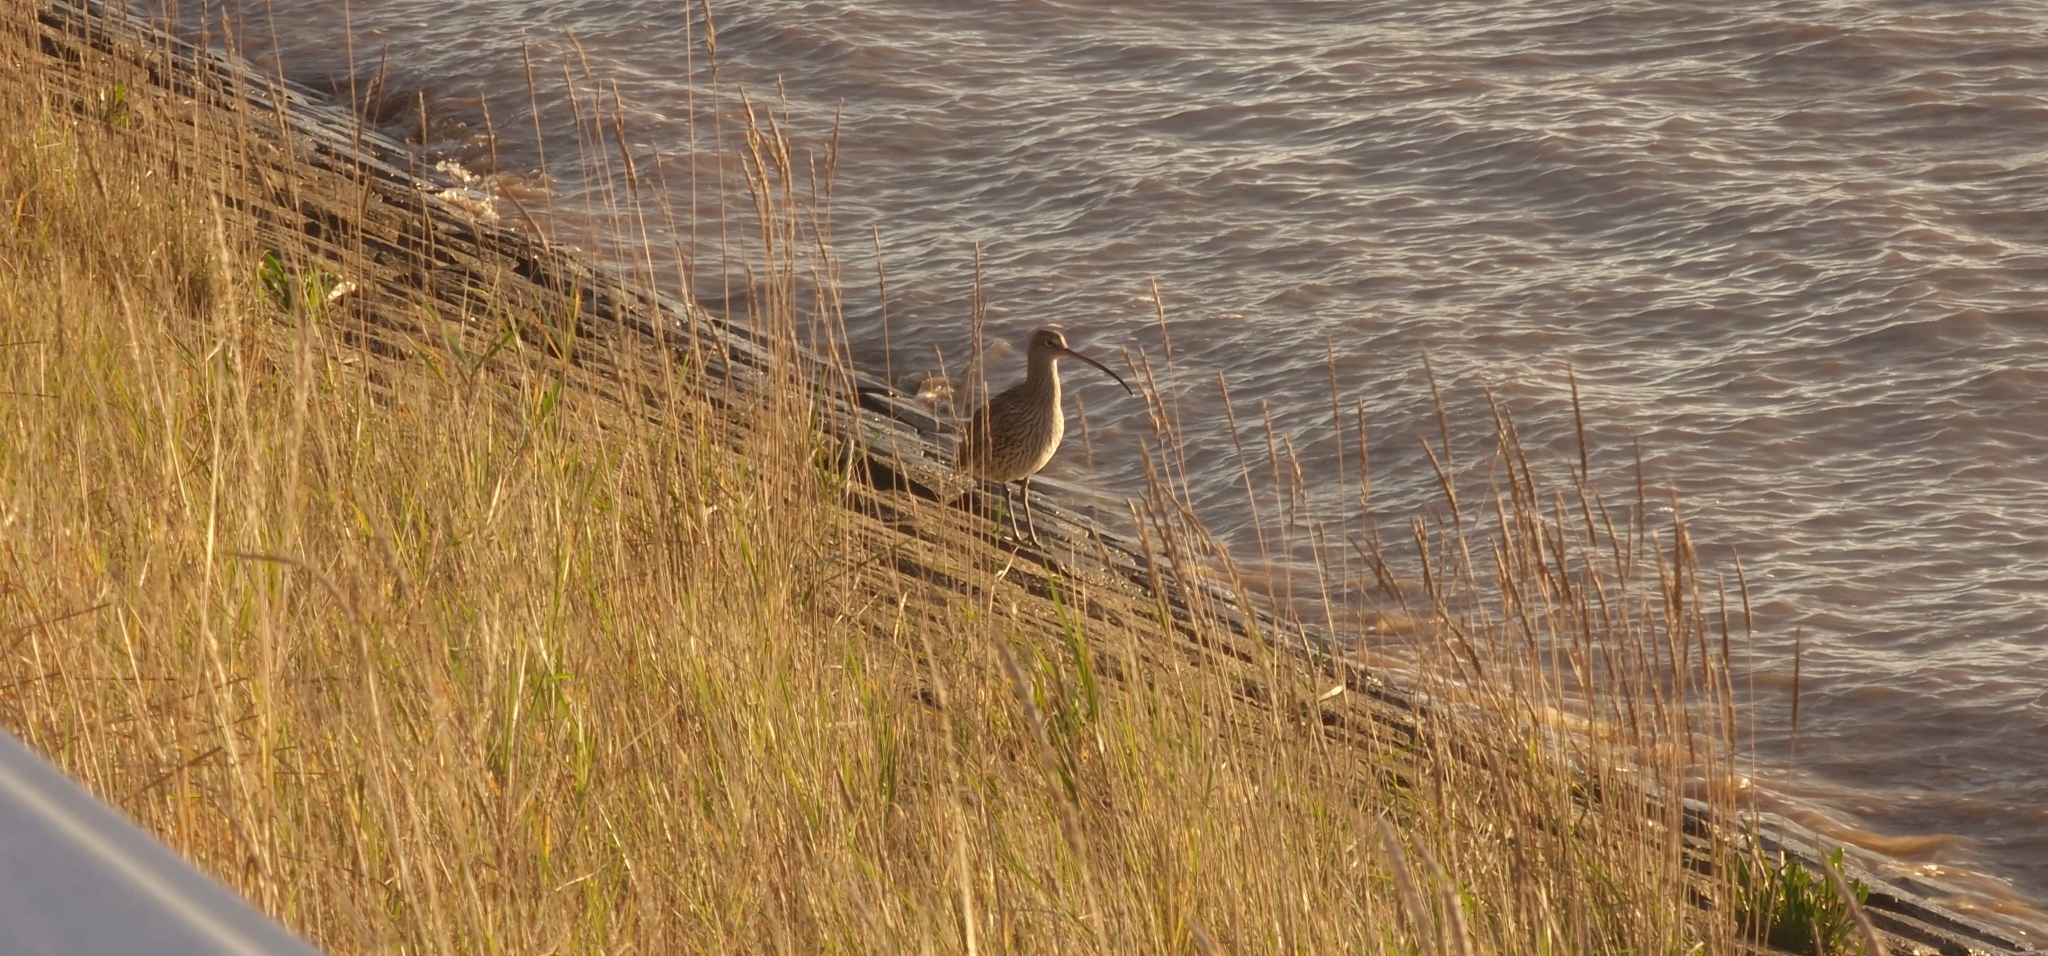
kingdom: Animalia
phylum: Chordata
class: Aves
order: Charadriiformes
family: Scolopacidae
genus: Numenius
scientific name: Numenius arquata
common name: Eurasian curlew
